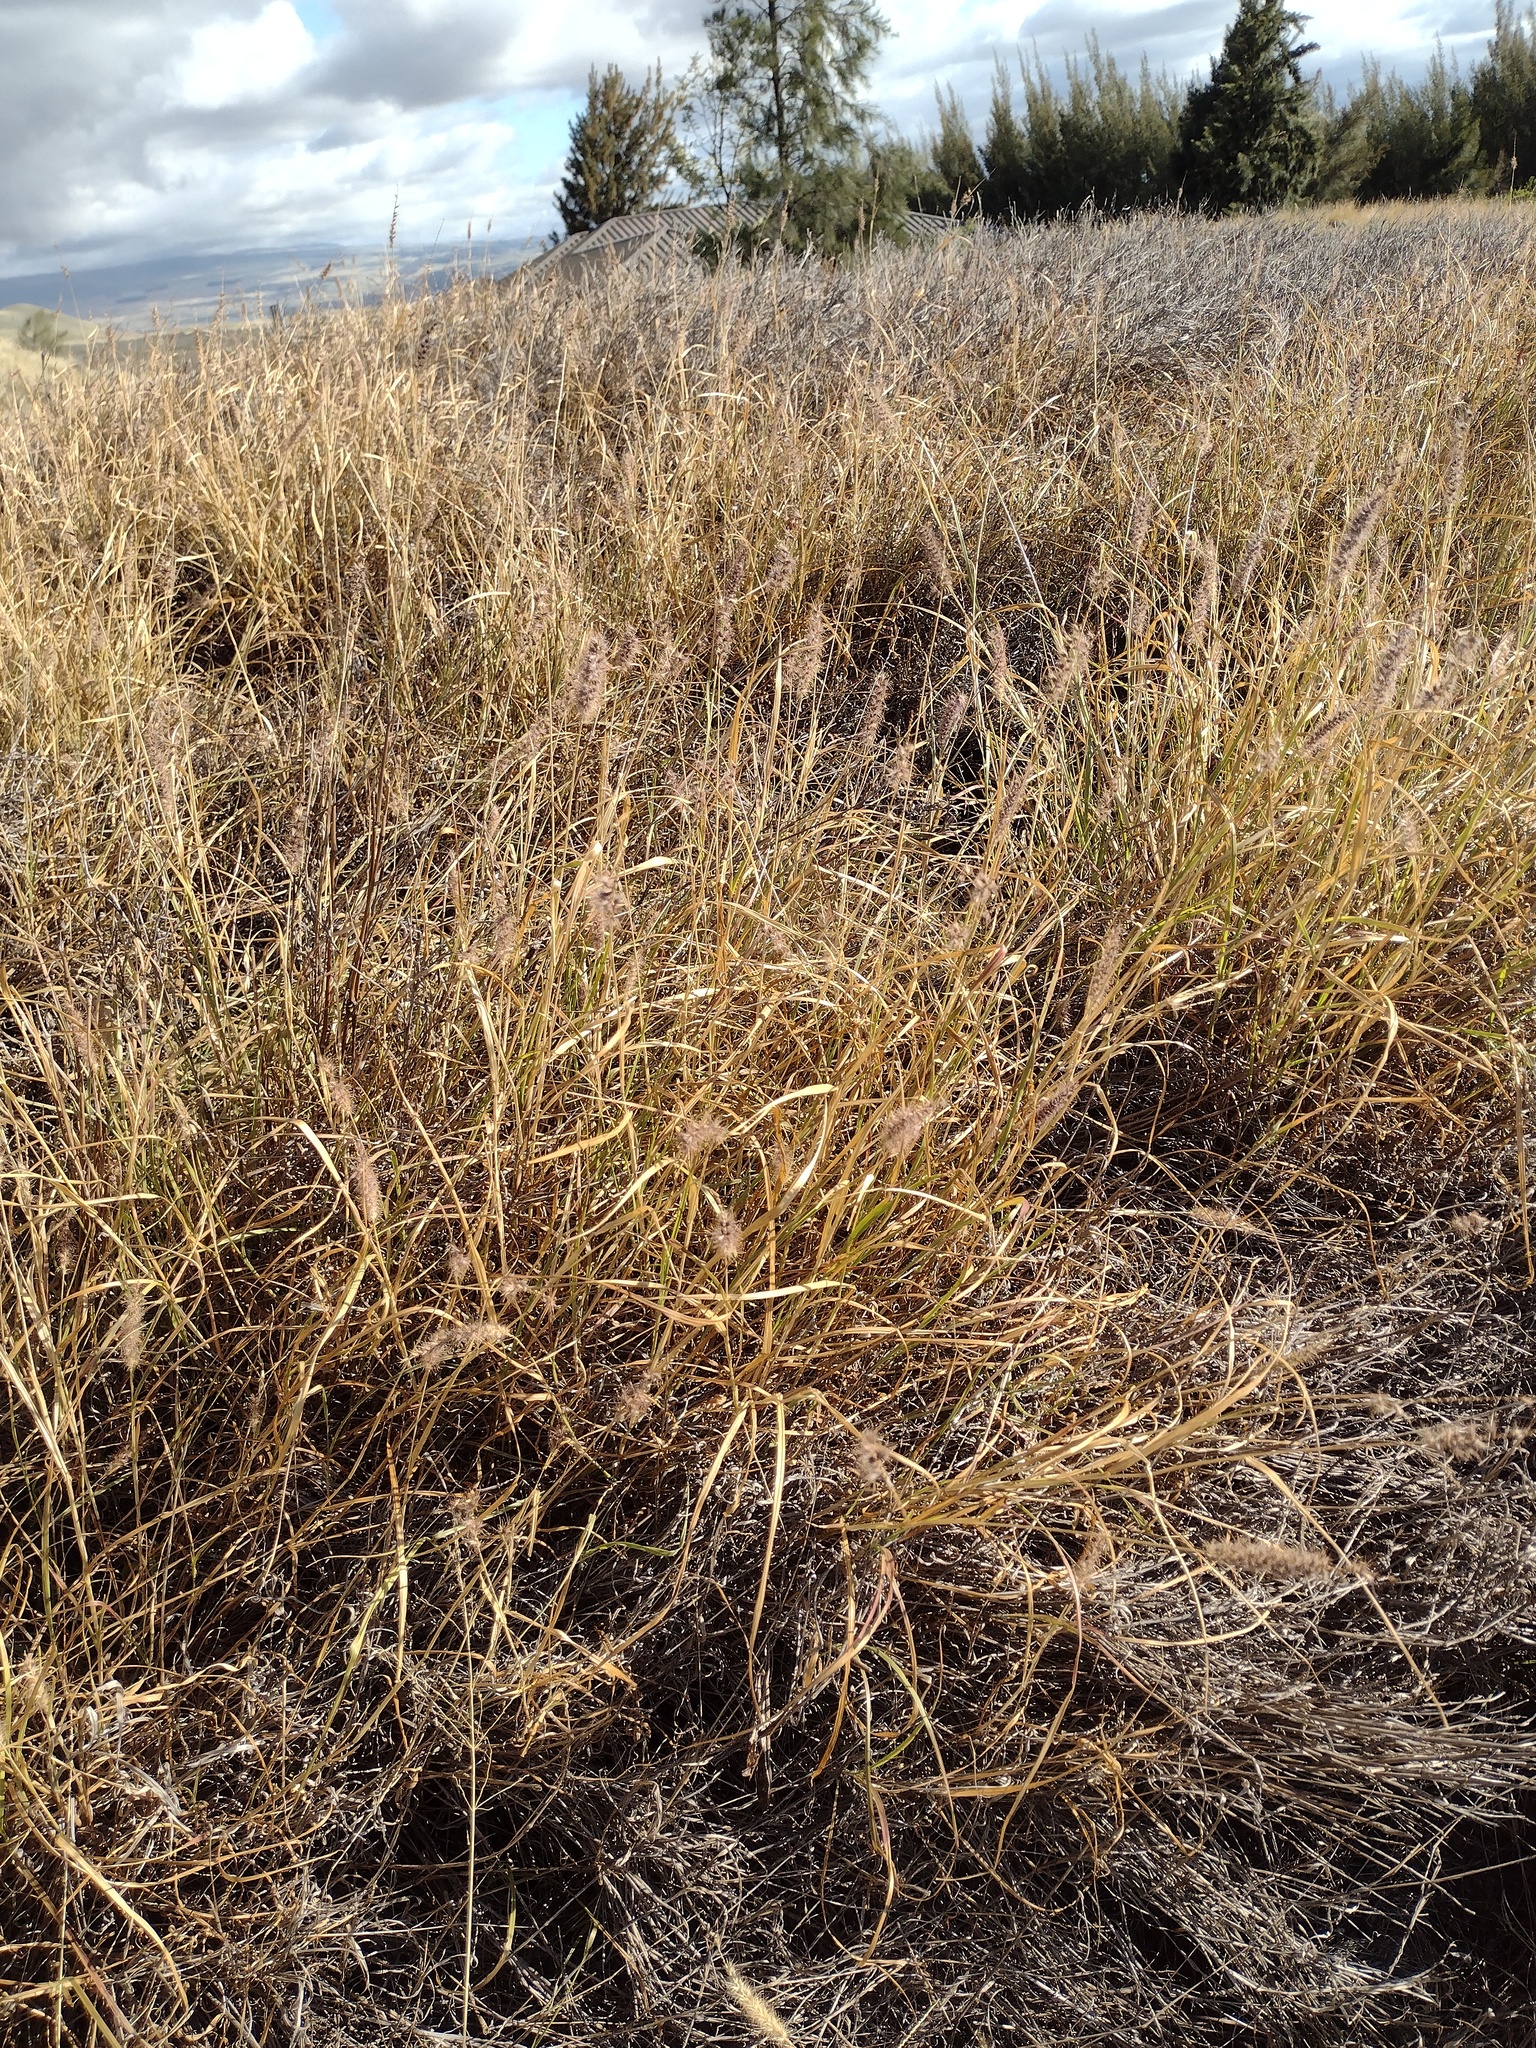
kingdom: Plantae
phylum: Tracheophyta
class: Liliopsida
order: Poales
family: Poaceae
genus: Cenchrus
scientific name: Cenchrus ciliaris
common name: Buffelgrass
